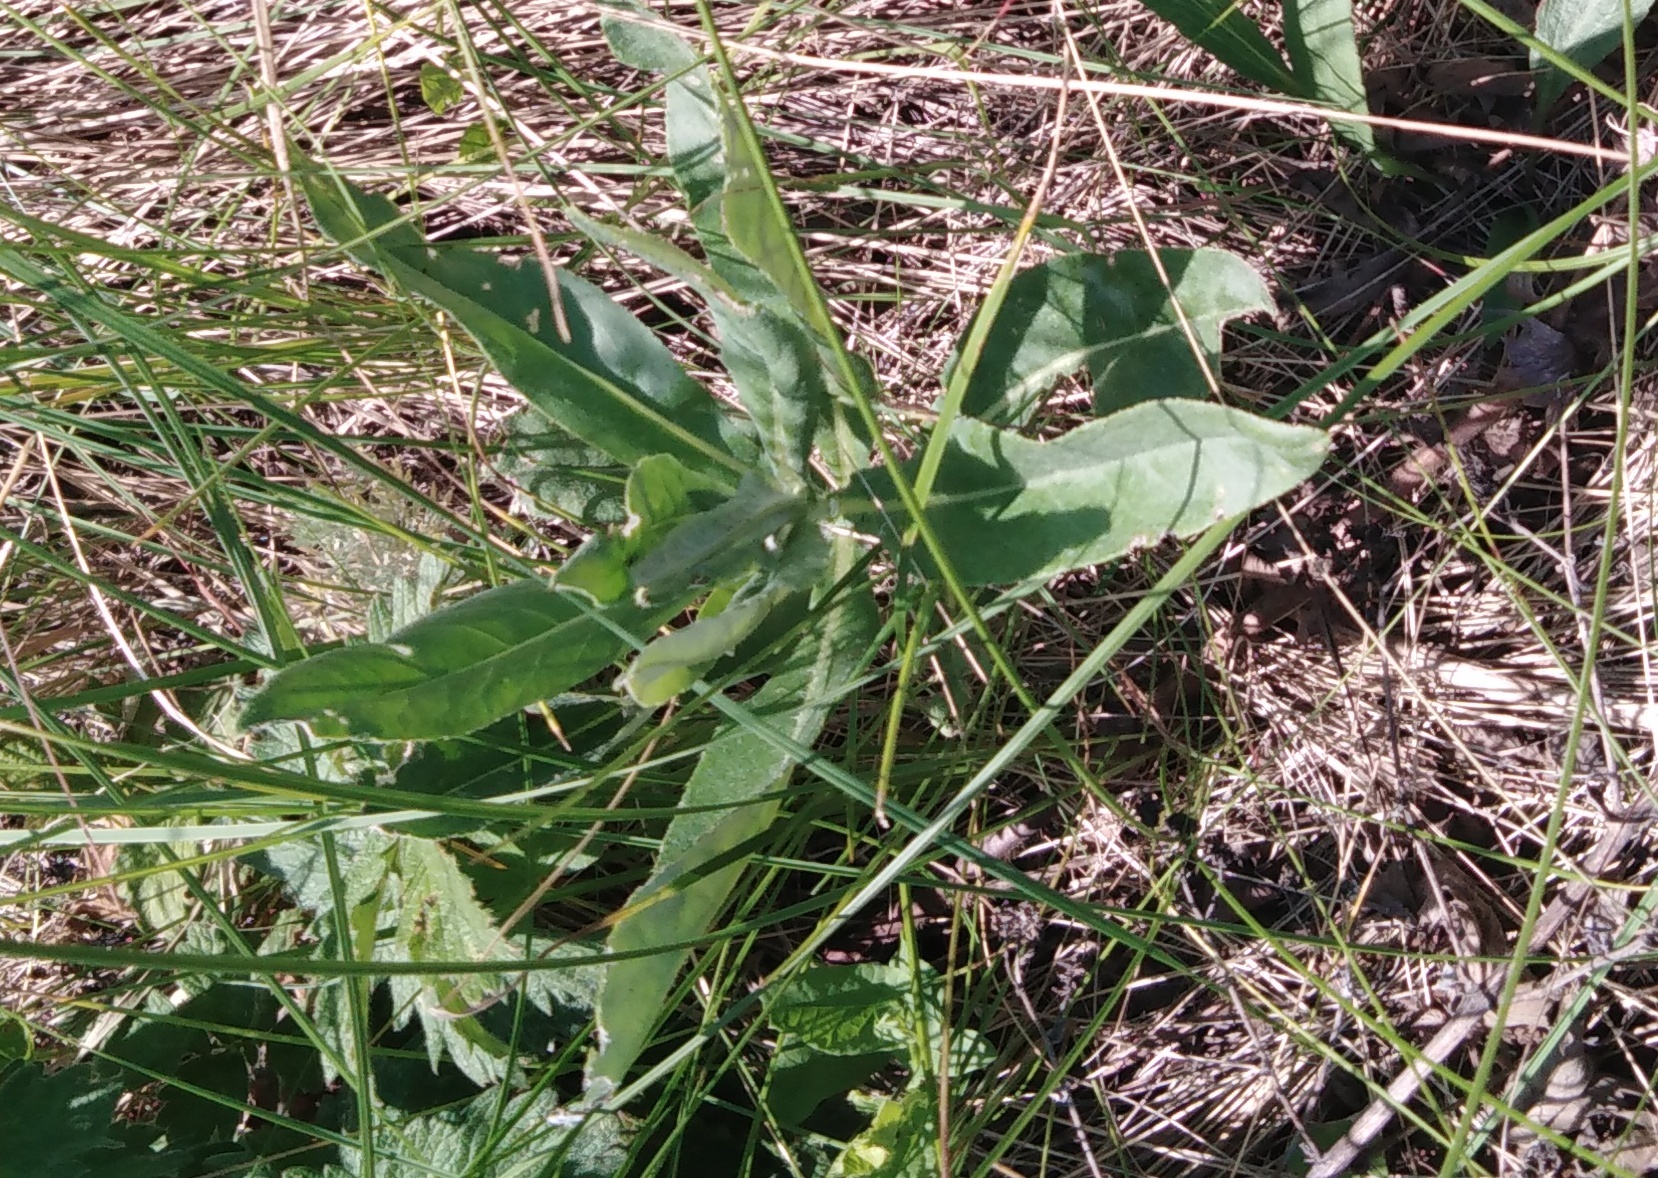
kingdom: Plantae
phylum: Tracheophyta
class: Magnoliopsida
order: Asterales
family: Asteraceae
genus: Cirsium
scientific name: Cirsium arvense
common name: Creeping thistle
